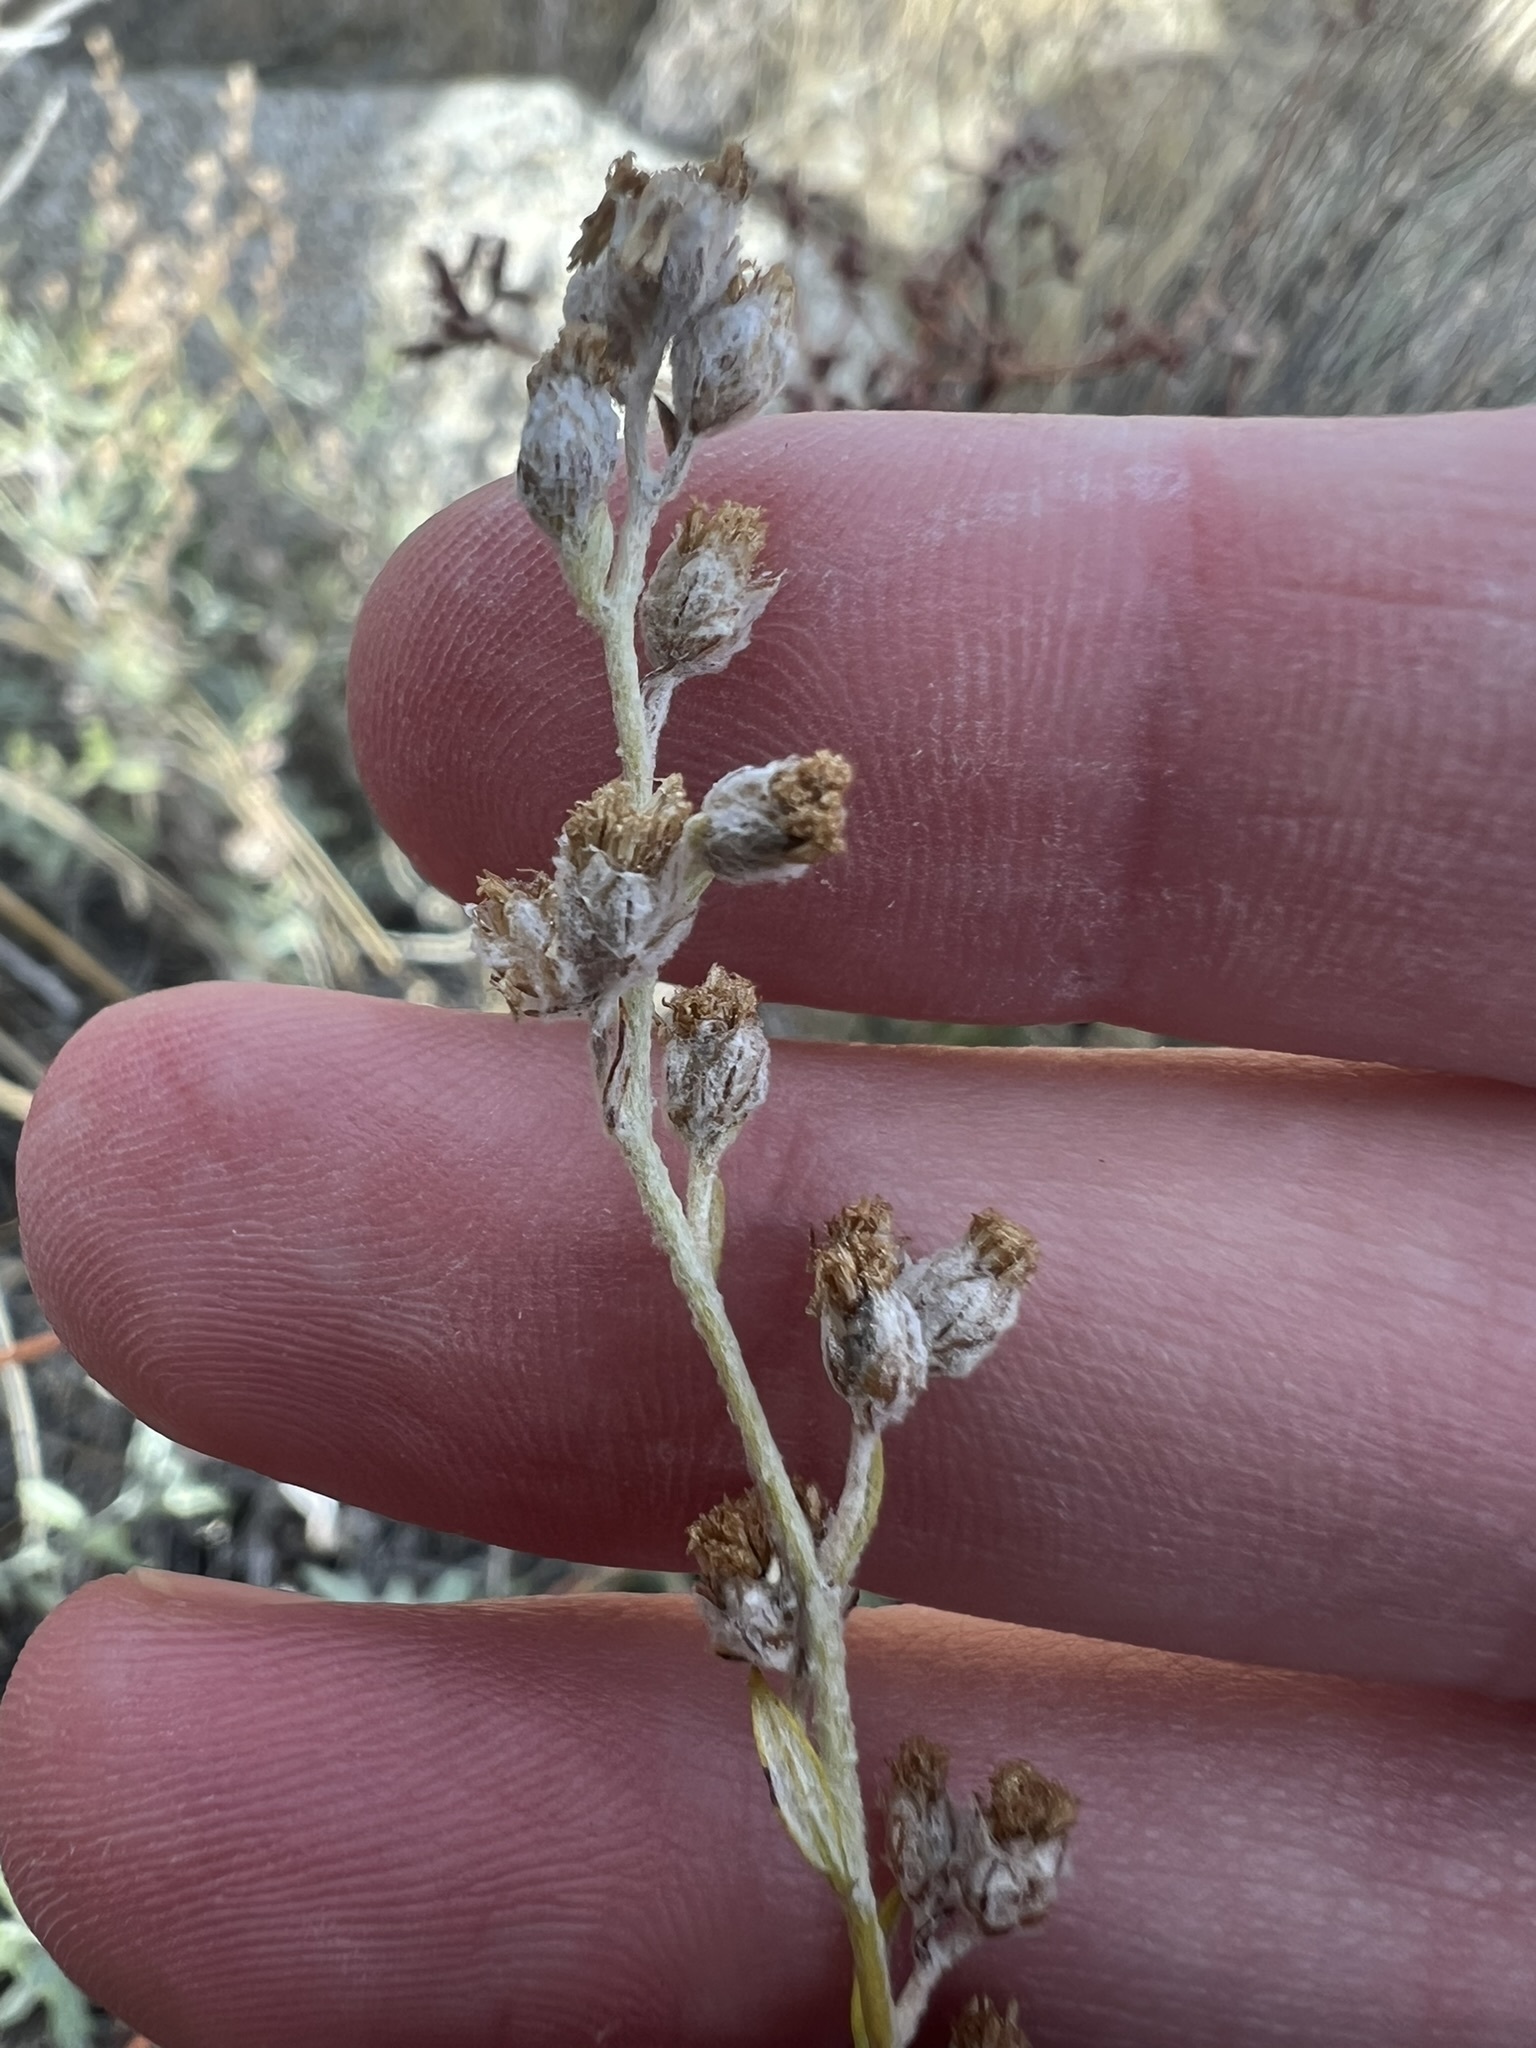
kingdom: Plantae
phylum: Tracheophyta
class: Magnoliopsida
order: Asterales
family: Asteraceae
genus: Artemisia
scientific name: Artemisia ludoviciana
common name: Western mugwort
